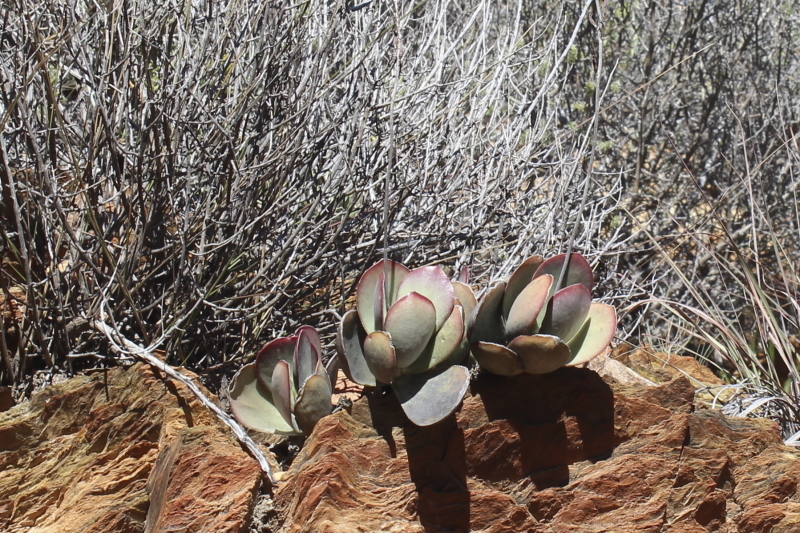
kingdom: Plantae
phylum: Tracheophyta
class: Magnoliopsida
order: Saxifragales
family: Crassulaceae
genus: Adromischus
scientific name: Adromischus sphenophyllus
